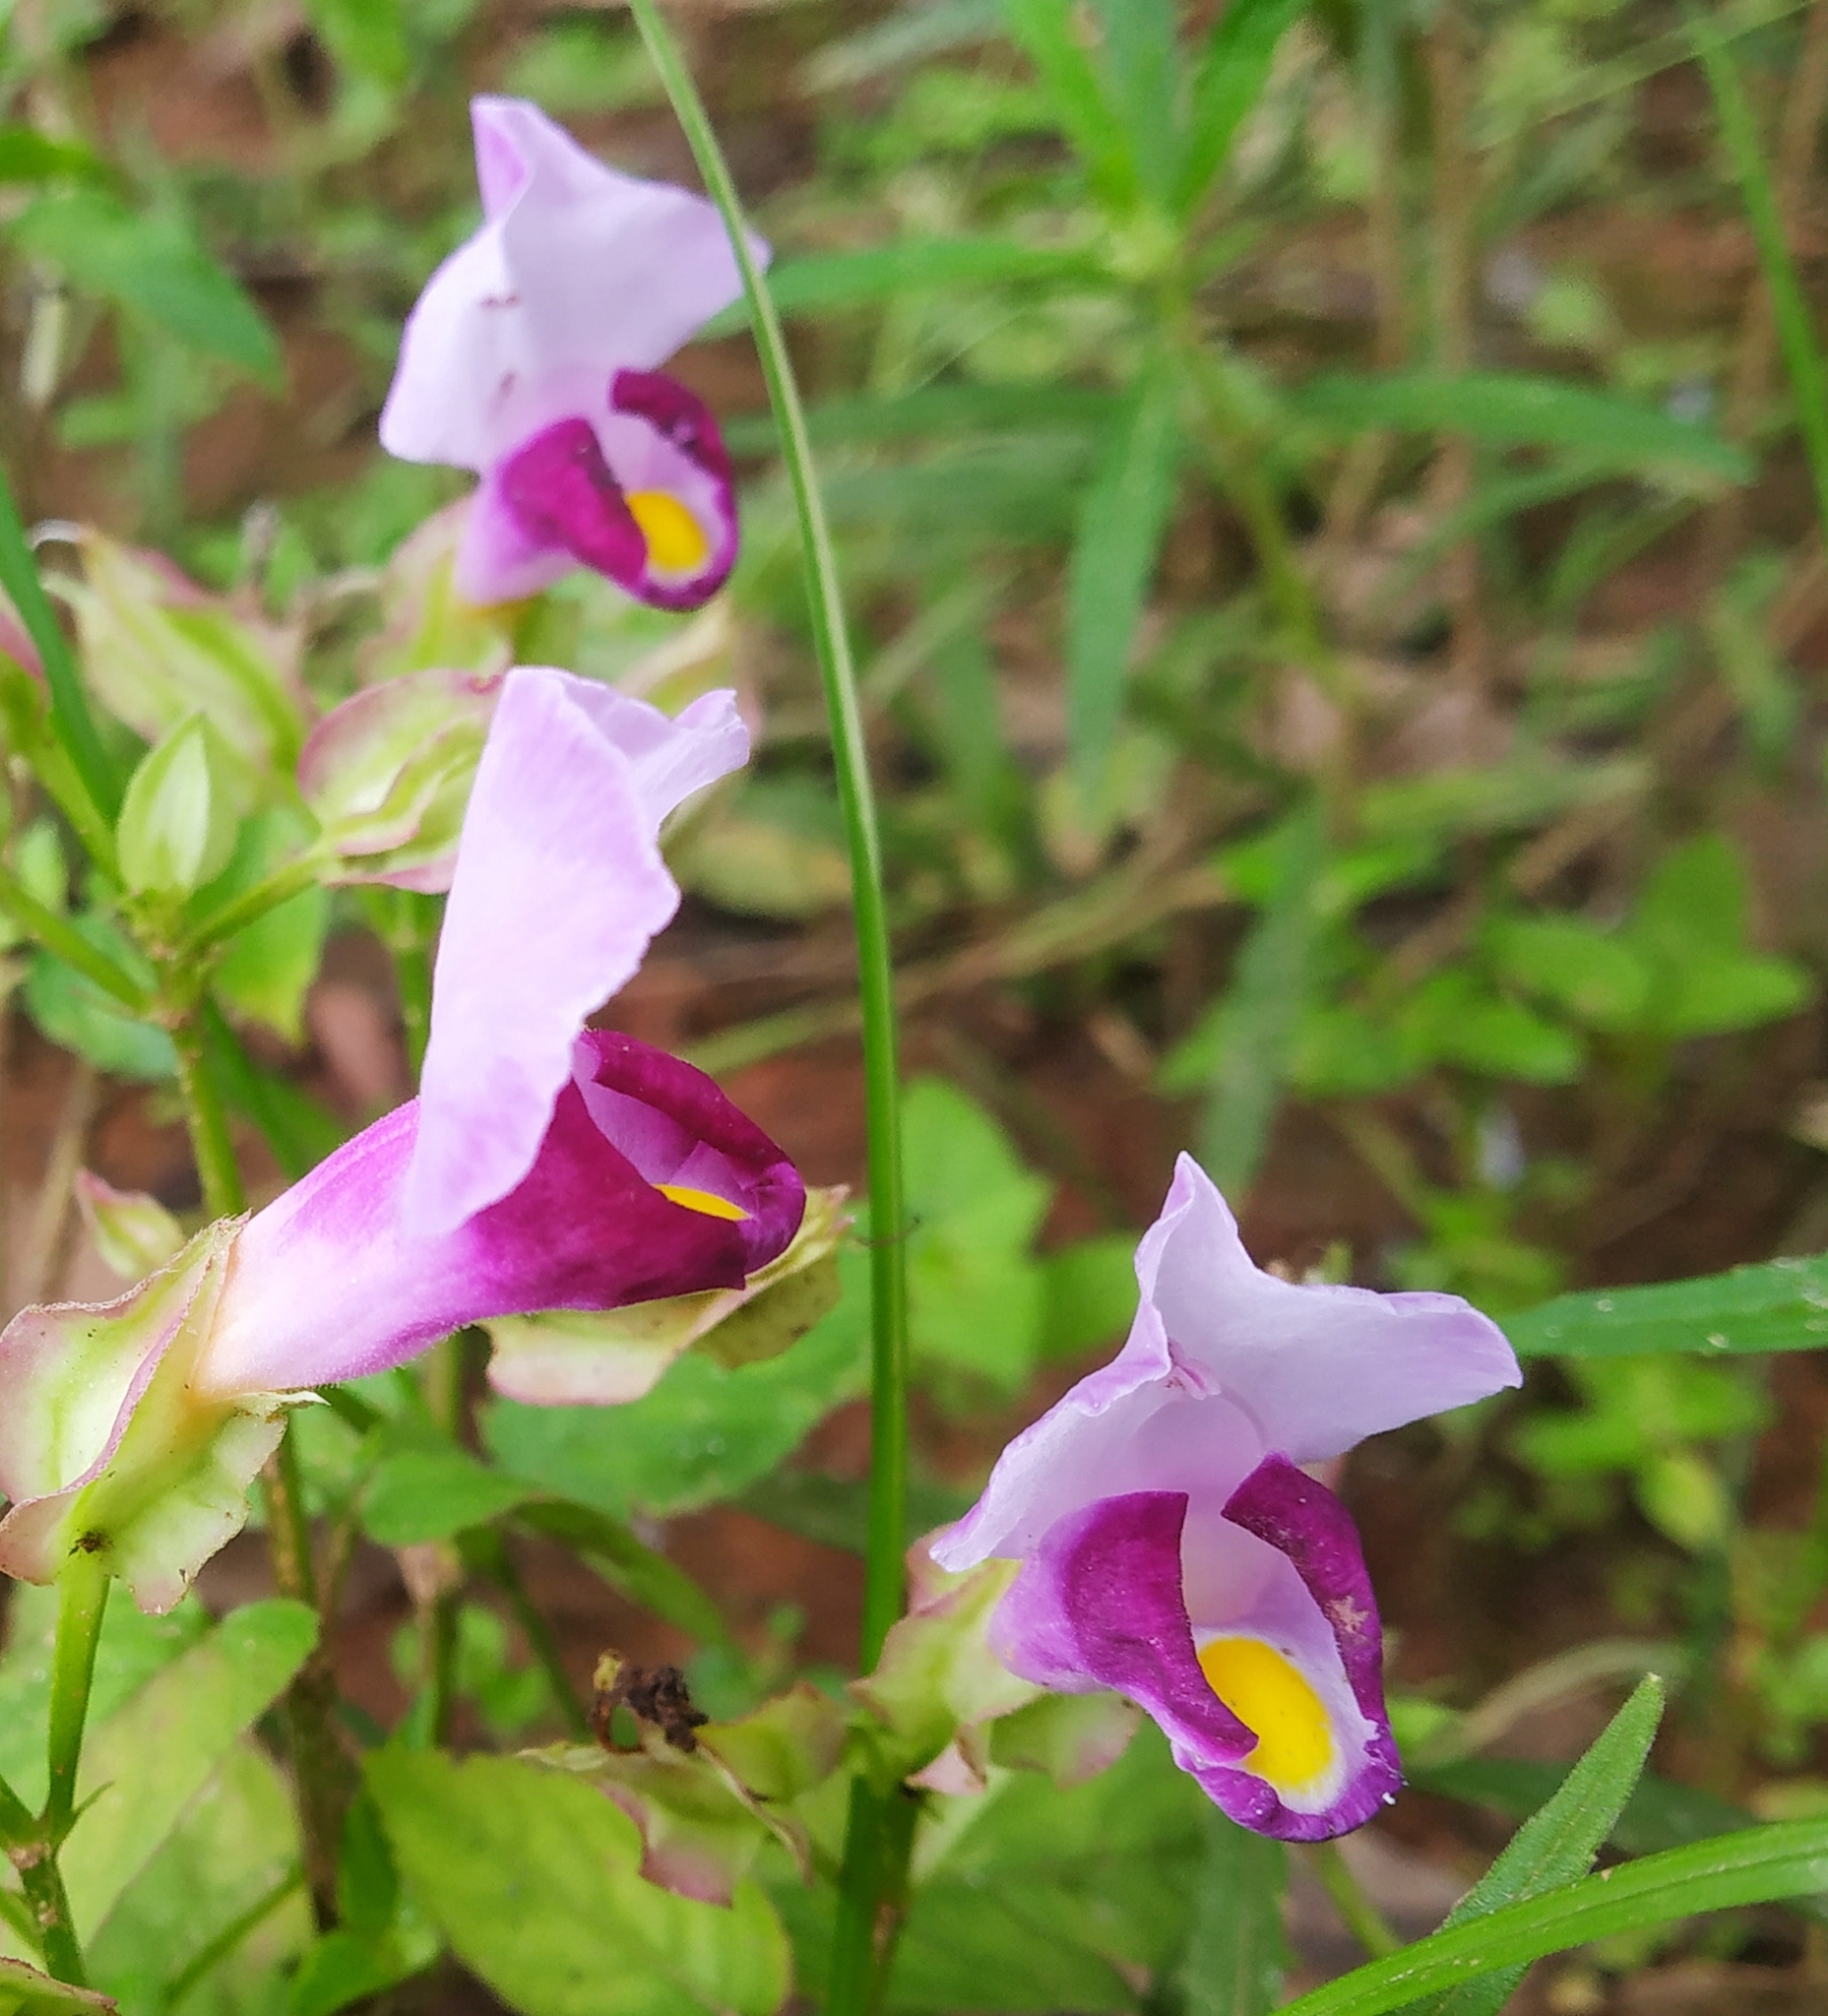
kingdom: Plantae
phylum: Tracheophyta
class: Magnoliopsida
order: Lamiales
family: Linderniaceae
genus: Torenia
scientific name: Torenia fournieri
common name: Bluewings
